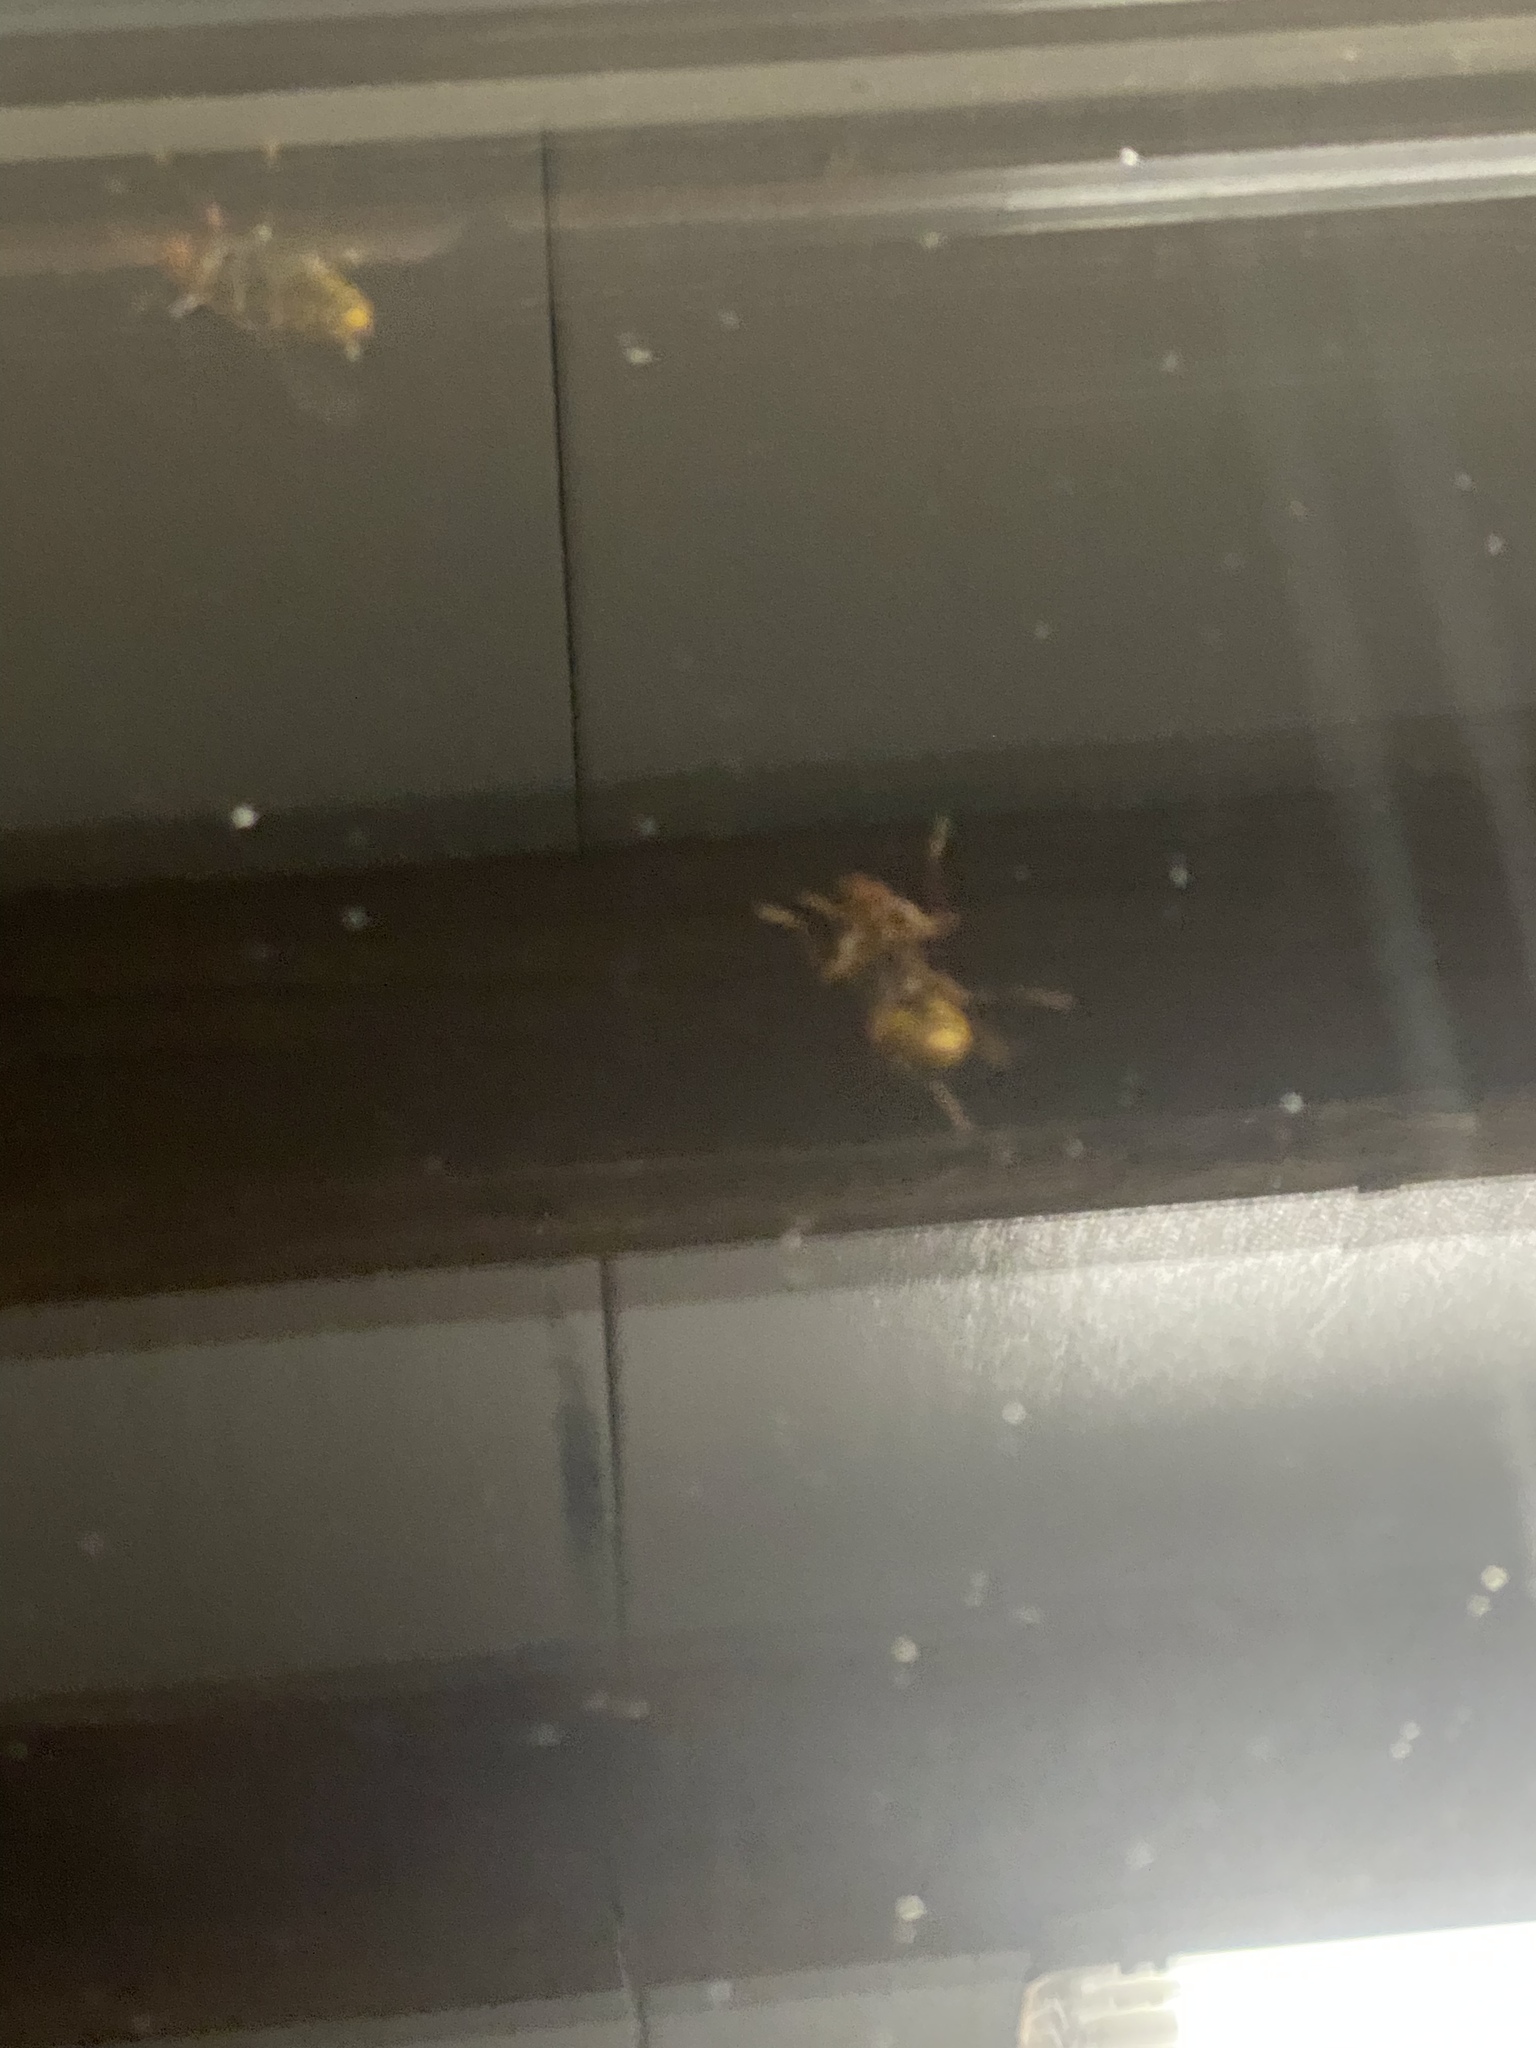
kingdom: Animalia
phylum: Arthropoda
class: Insecta
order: Hymenoptera
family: Vespidae
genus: Vespa
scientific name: Vespa crabro
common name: Hornet
